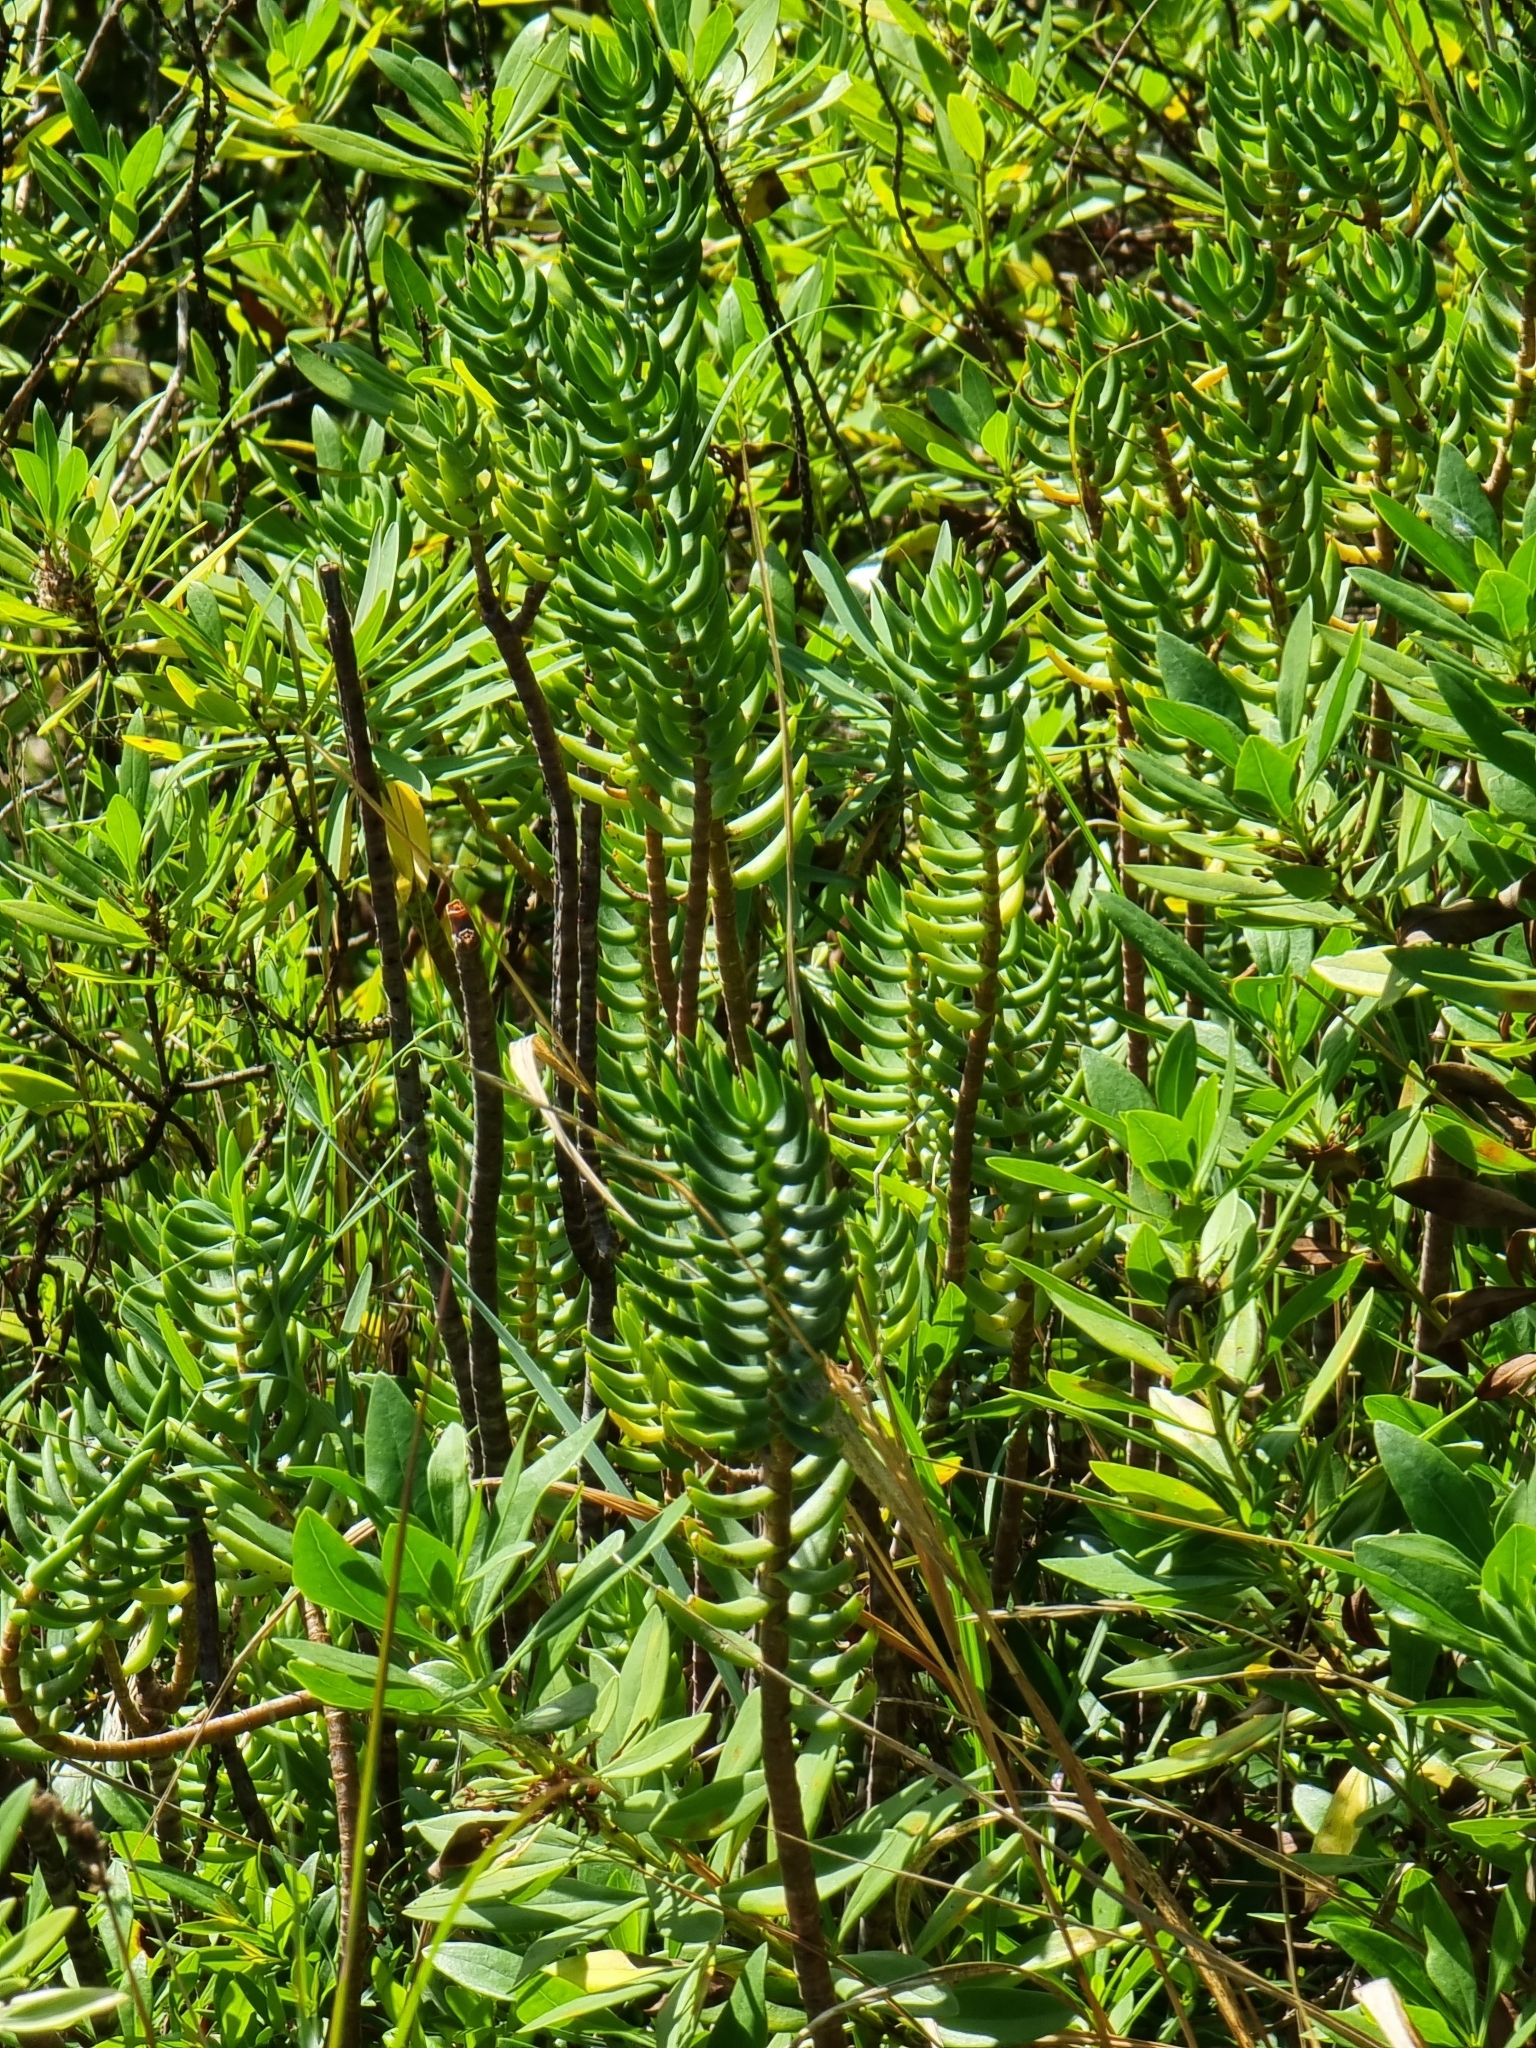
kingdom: Plantae
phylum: Tracheophyta
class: Magnoliopsida
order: Saxifragales
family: Crassulaceae
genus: Crassula
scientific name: Crassula tetragona
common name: Pygmyweed
